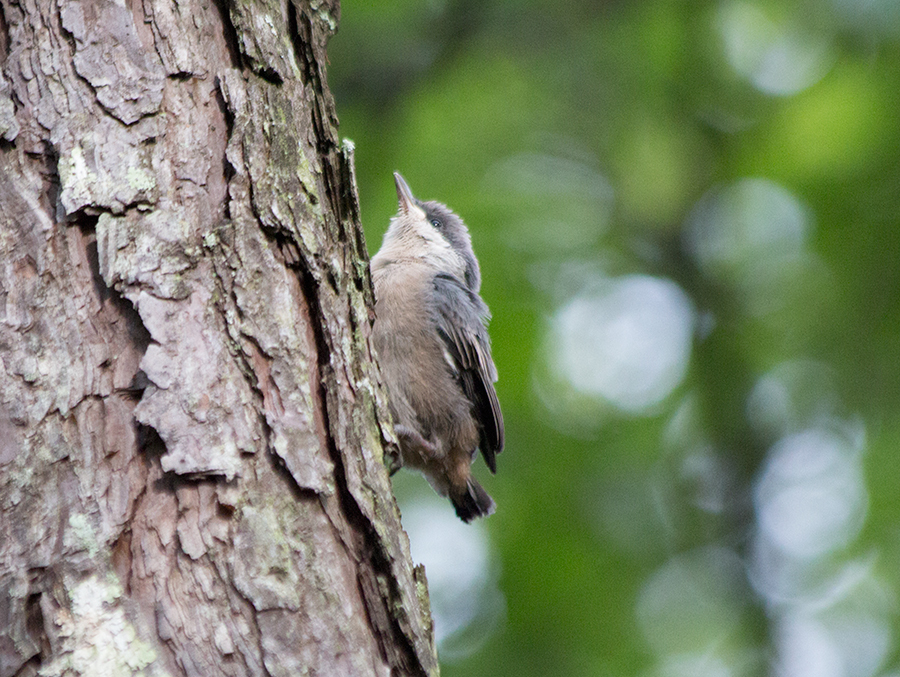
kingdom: Animalia
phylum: Chordata
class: Aves
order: Passeriformes
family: Sittidae
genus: Sitta
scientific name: Sitta pusilla
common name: Brown-headed nuthatch
